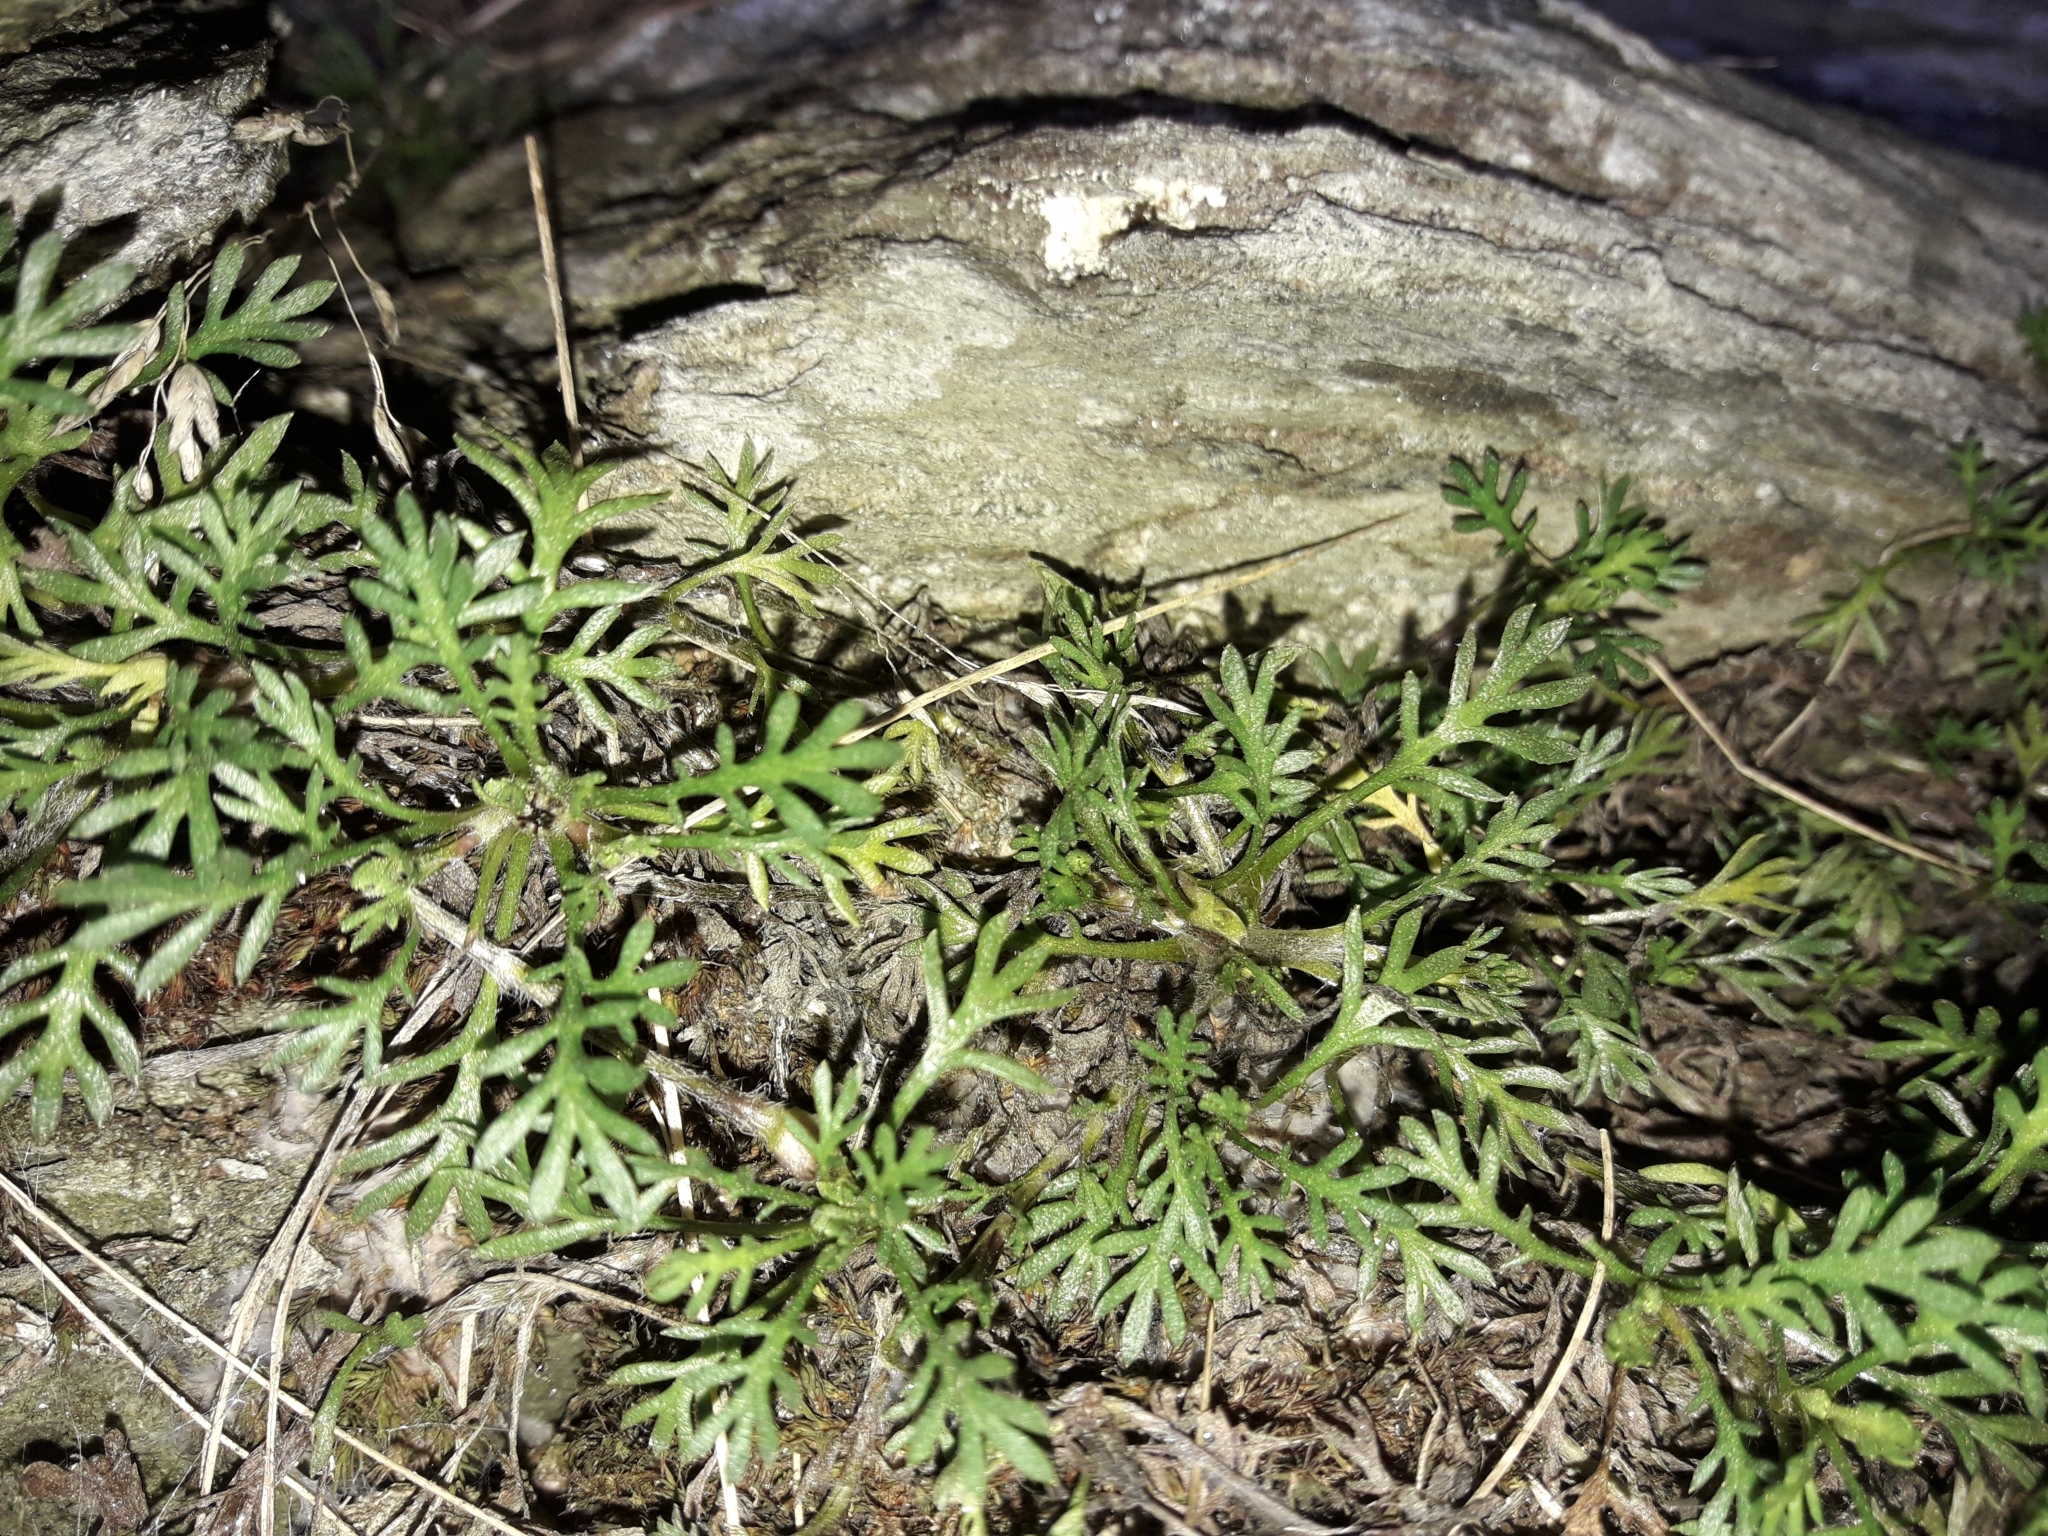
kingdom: Plantae
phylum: Tracheophyta
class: Magnoliopsida
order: Asterales
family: Asteraceae
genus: Leptinella
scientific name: Leptinella pectinata
